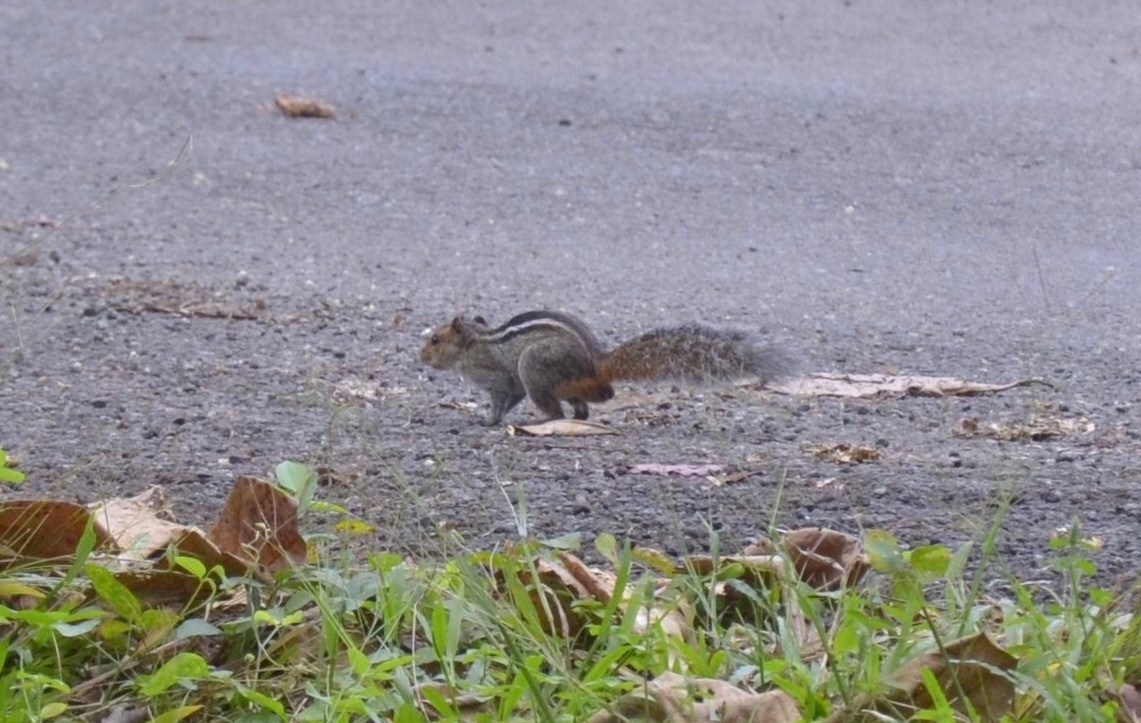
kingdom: Animalia
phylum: Chordata
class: Mammalia
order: Rodentia
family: Sciuridae
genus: Funambulus
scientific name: Funambulus tristriatus
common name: Jungle palm squirrel
